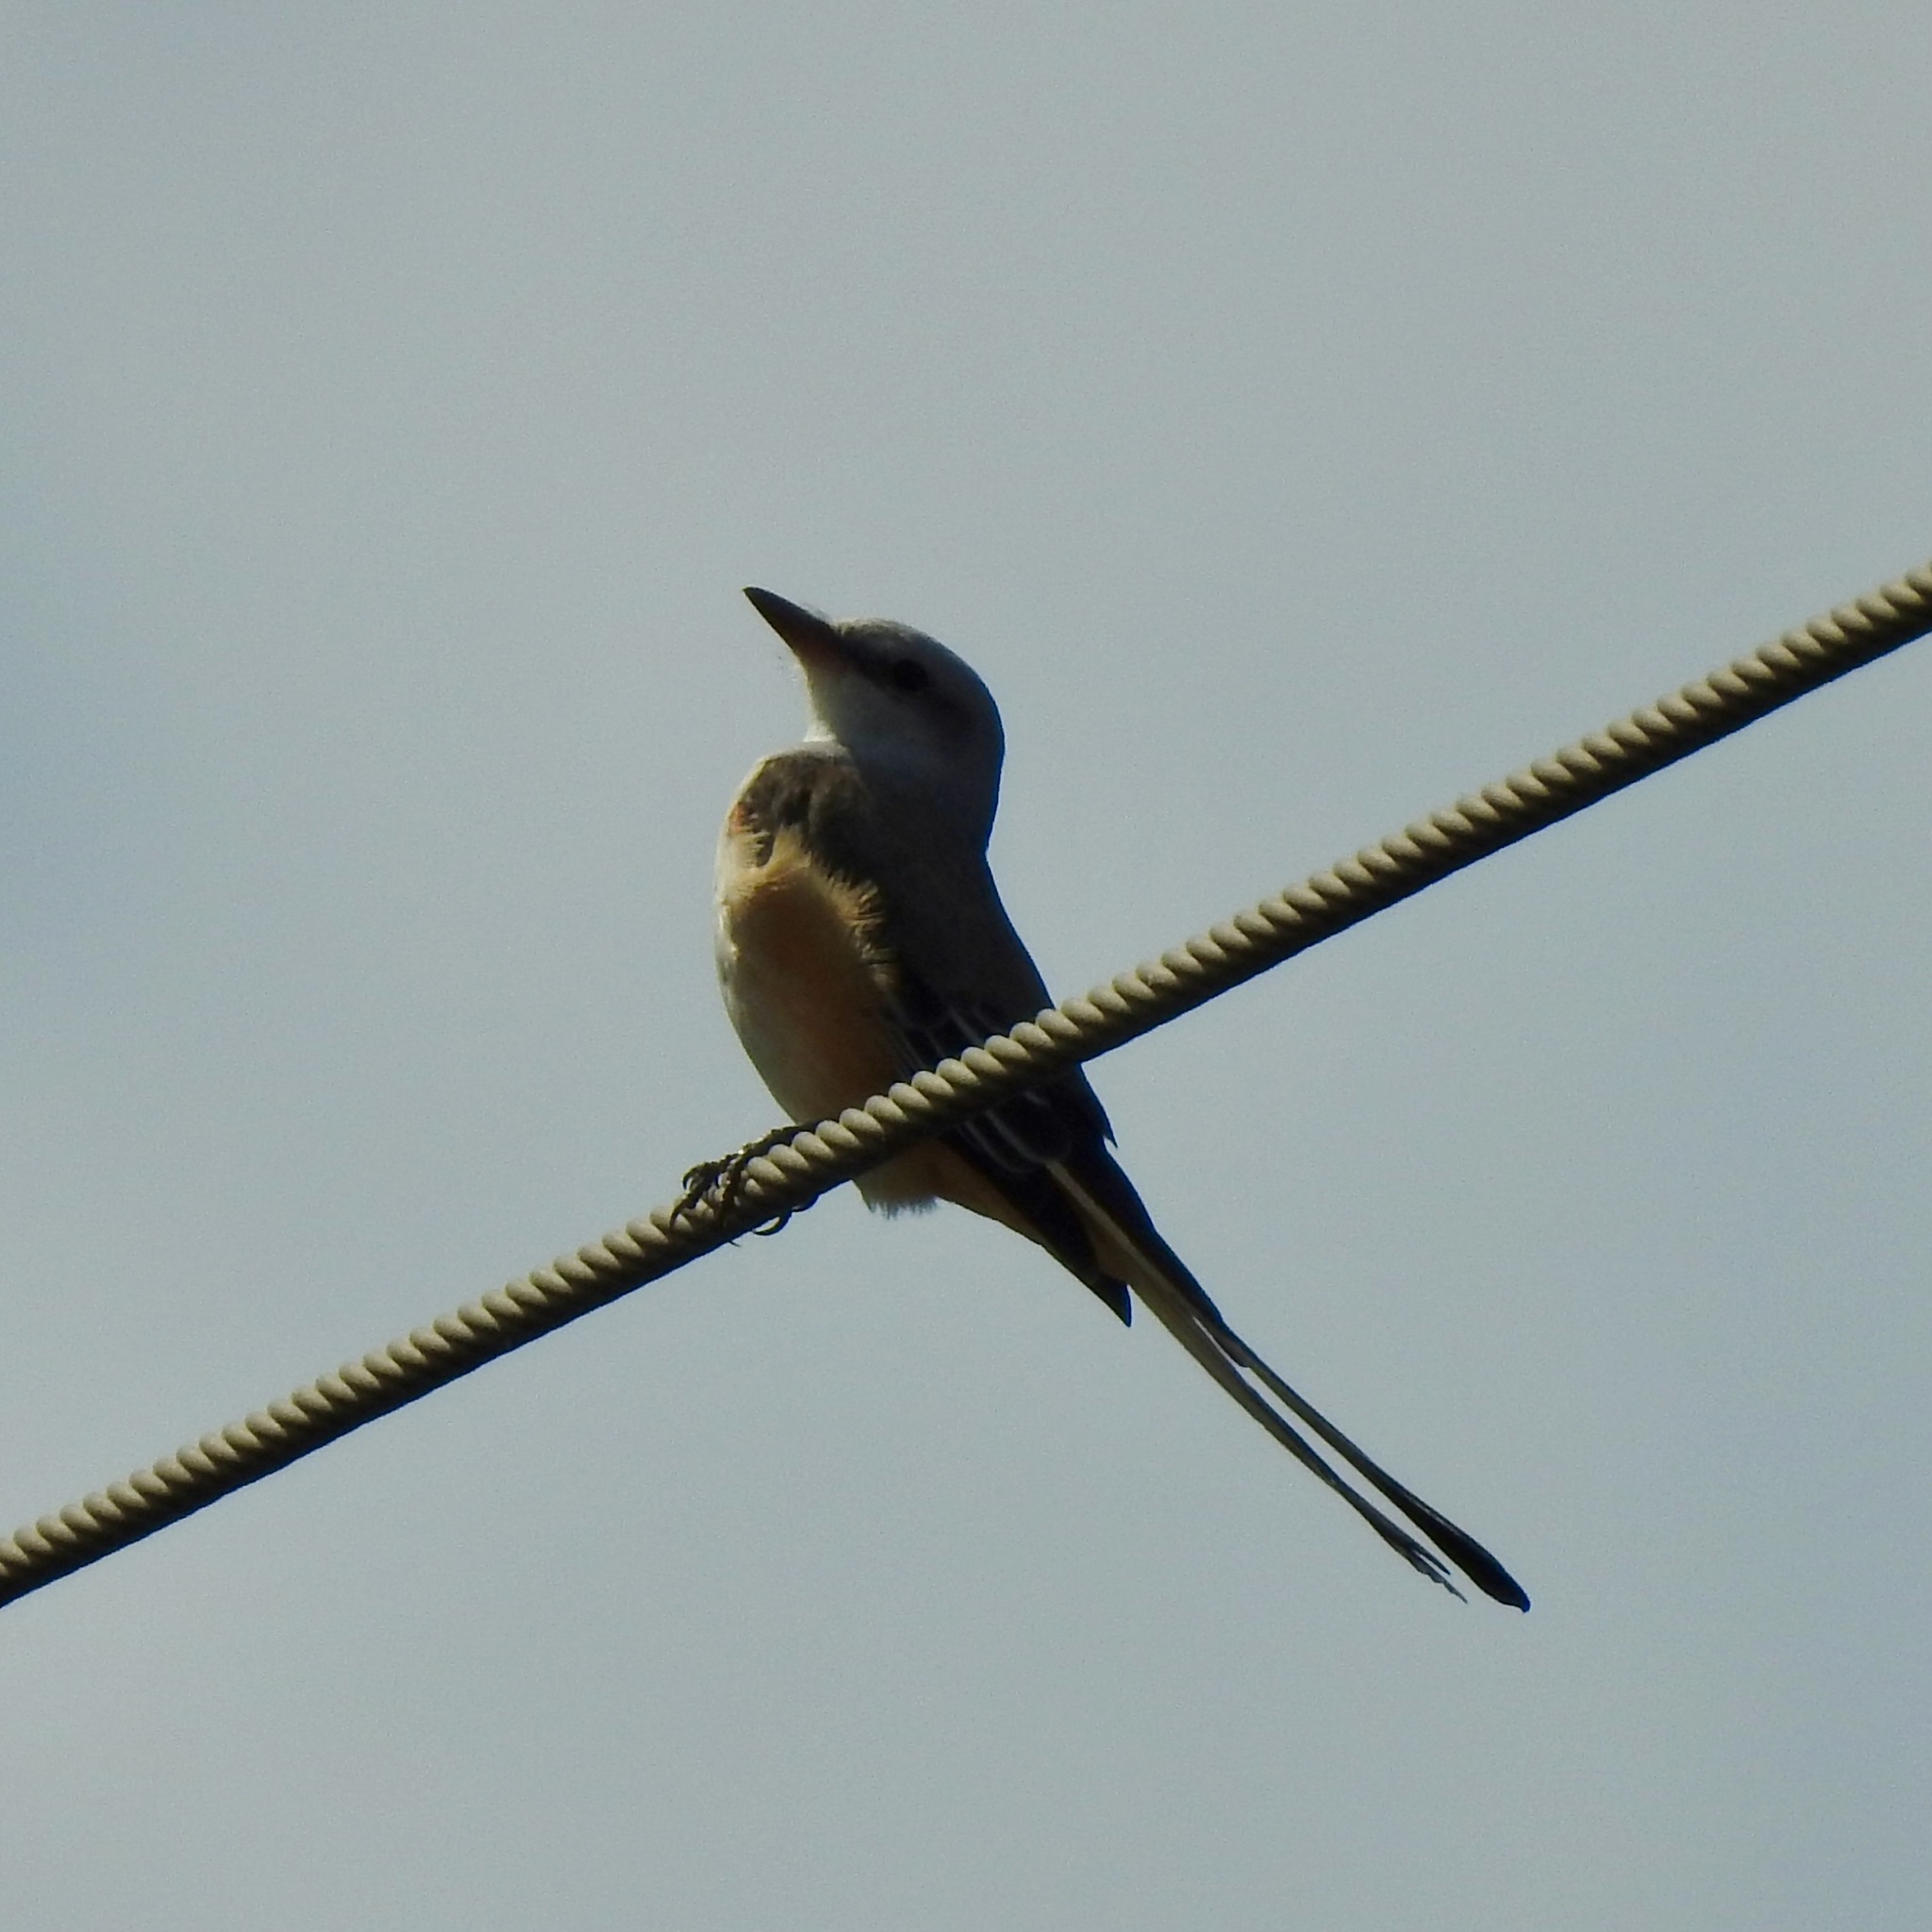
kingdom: Animalia
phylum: Chordata
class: Aves
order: Passeriformes
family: Tyrannidae
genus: Tyrannus
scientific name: Tyrannus forficatus
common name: Scissor-tailed flycatcher
